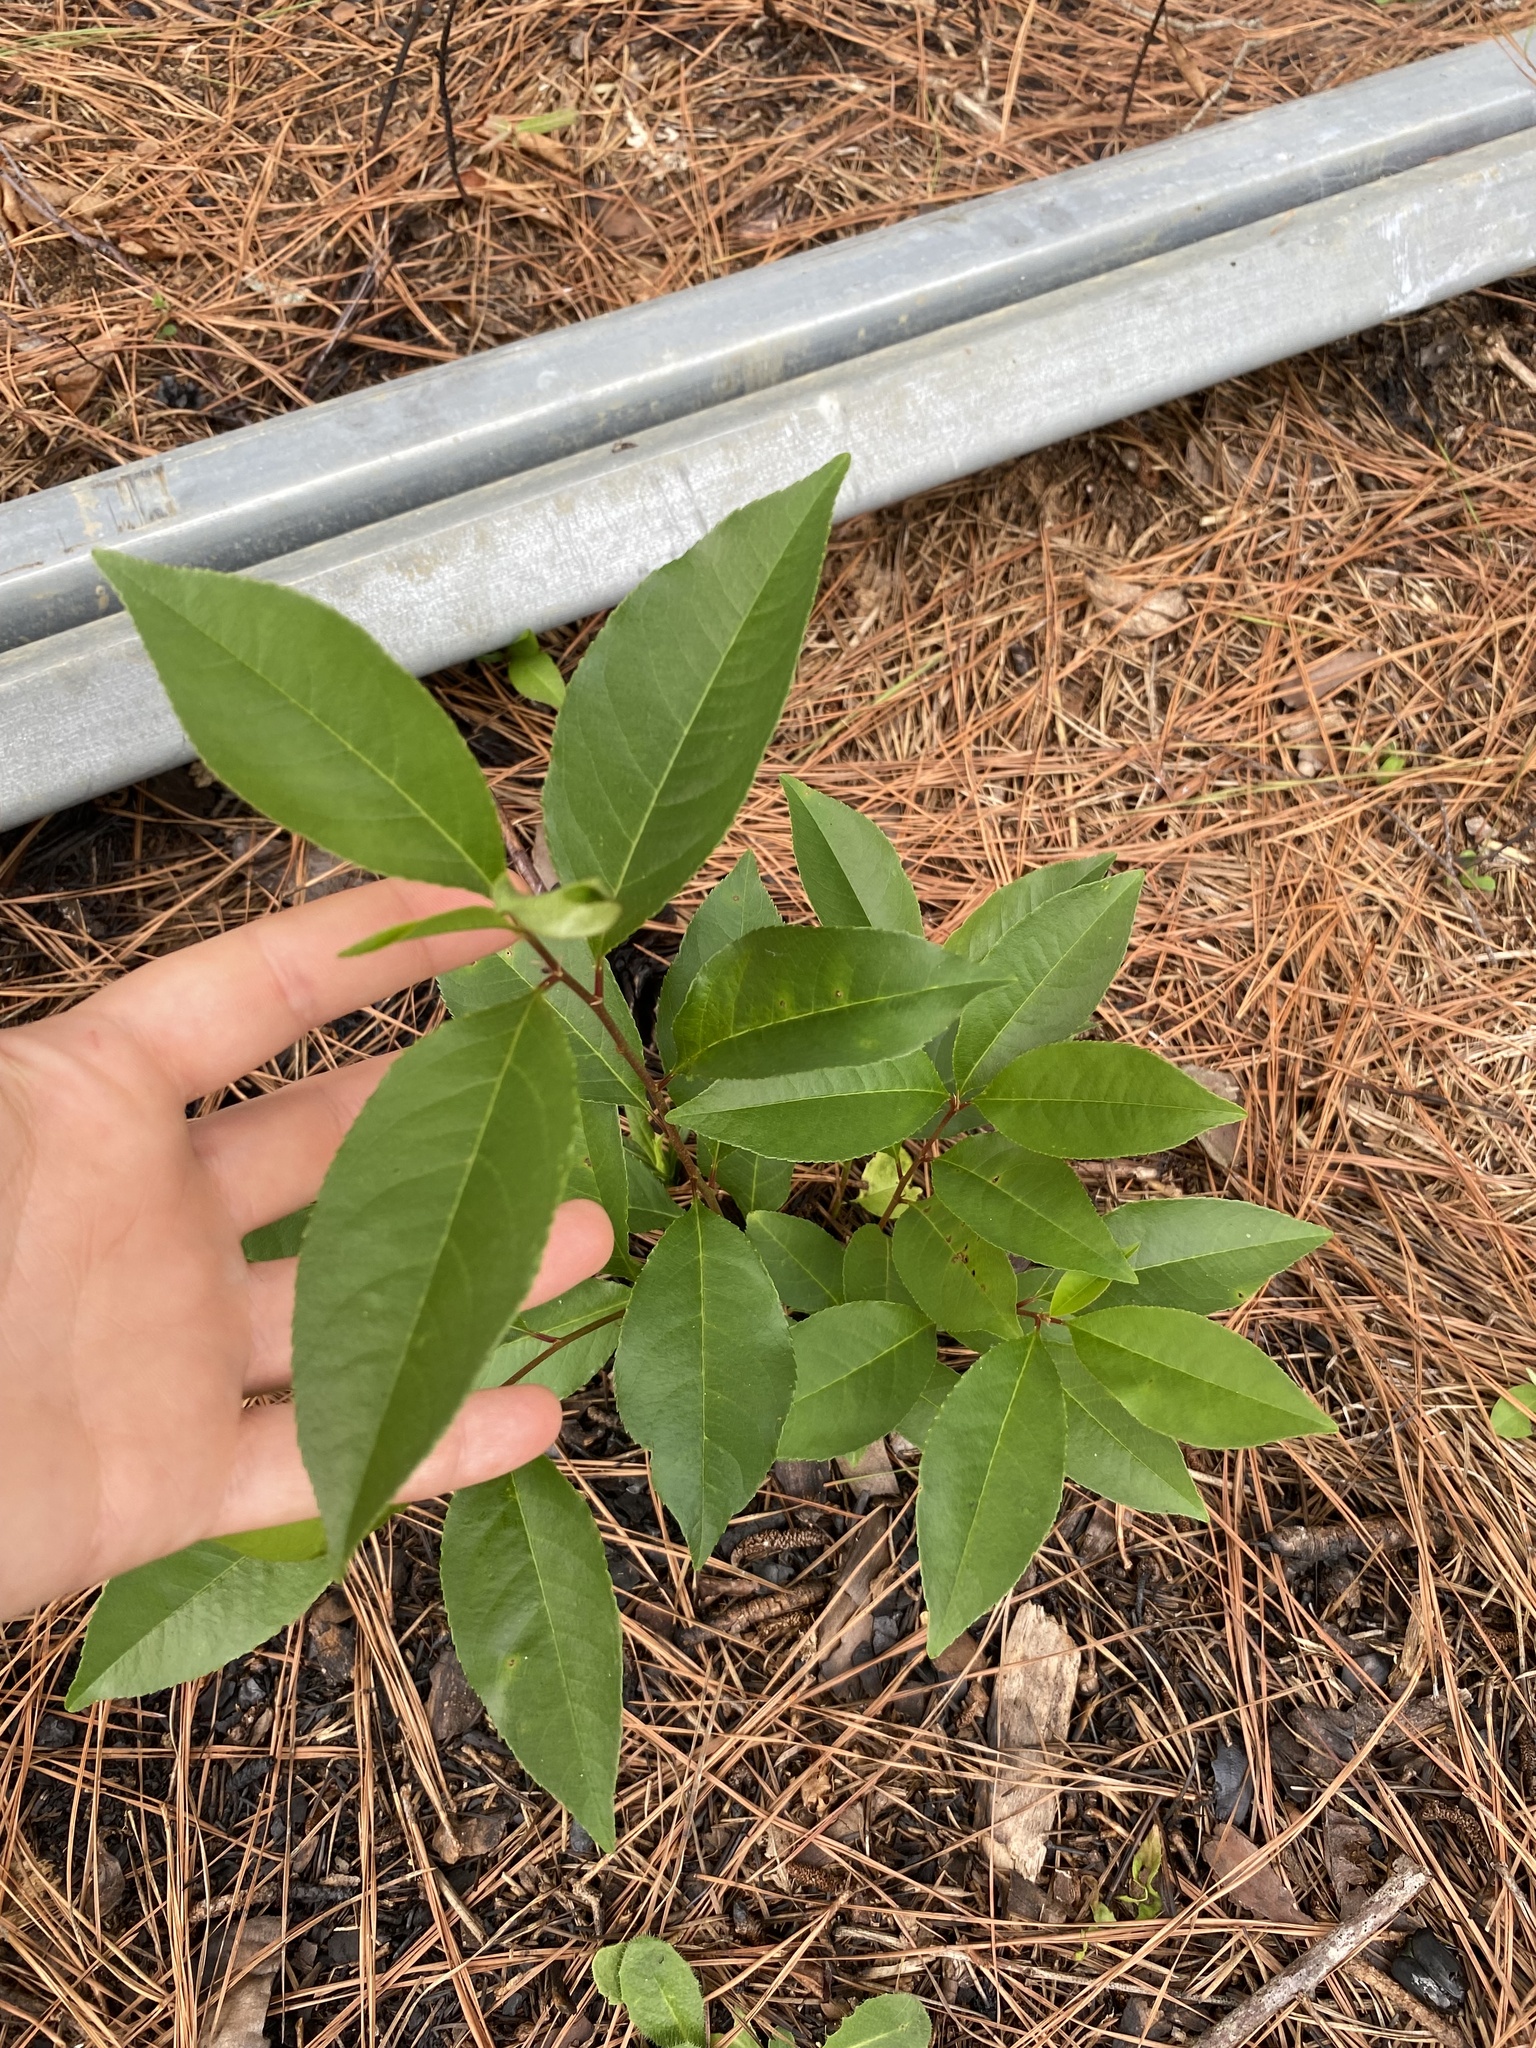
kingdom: Plantae
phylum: Tracheophyta
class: Magnoliopsida
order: Rosales
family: Rosaceae
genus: Prunus
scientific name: Prunus serotina
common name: Black cherry
